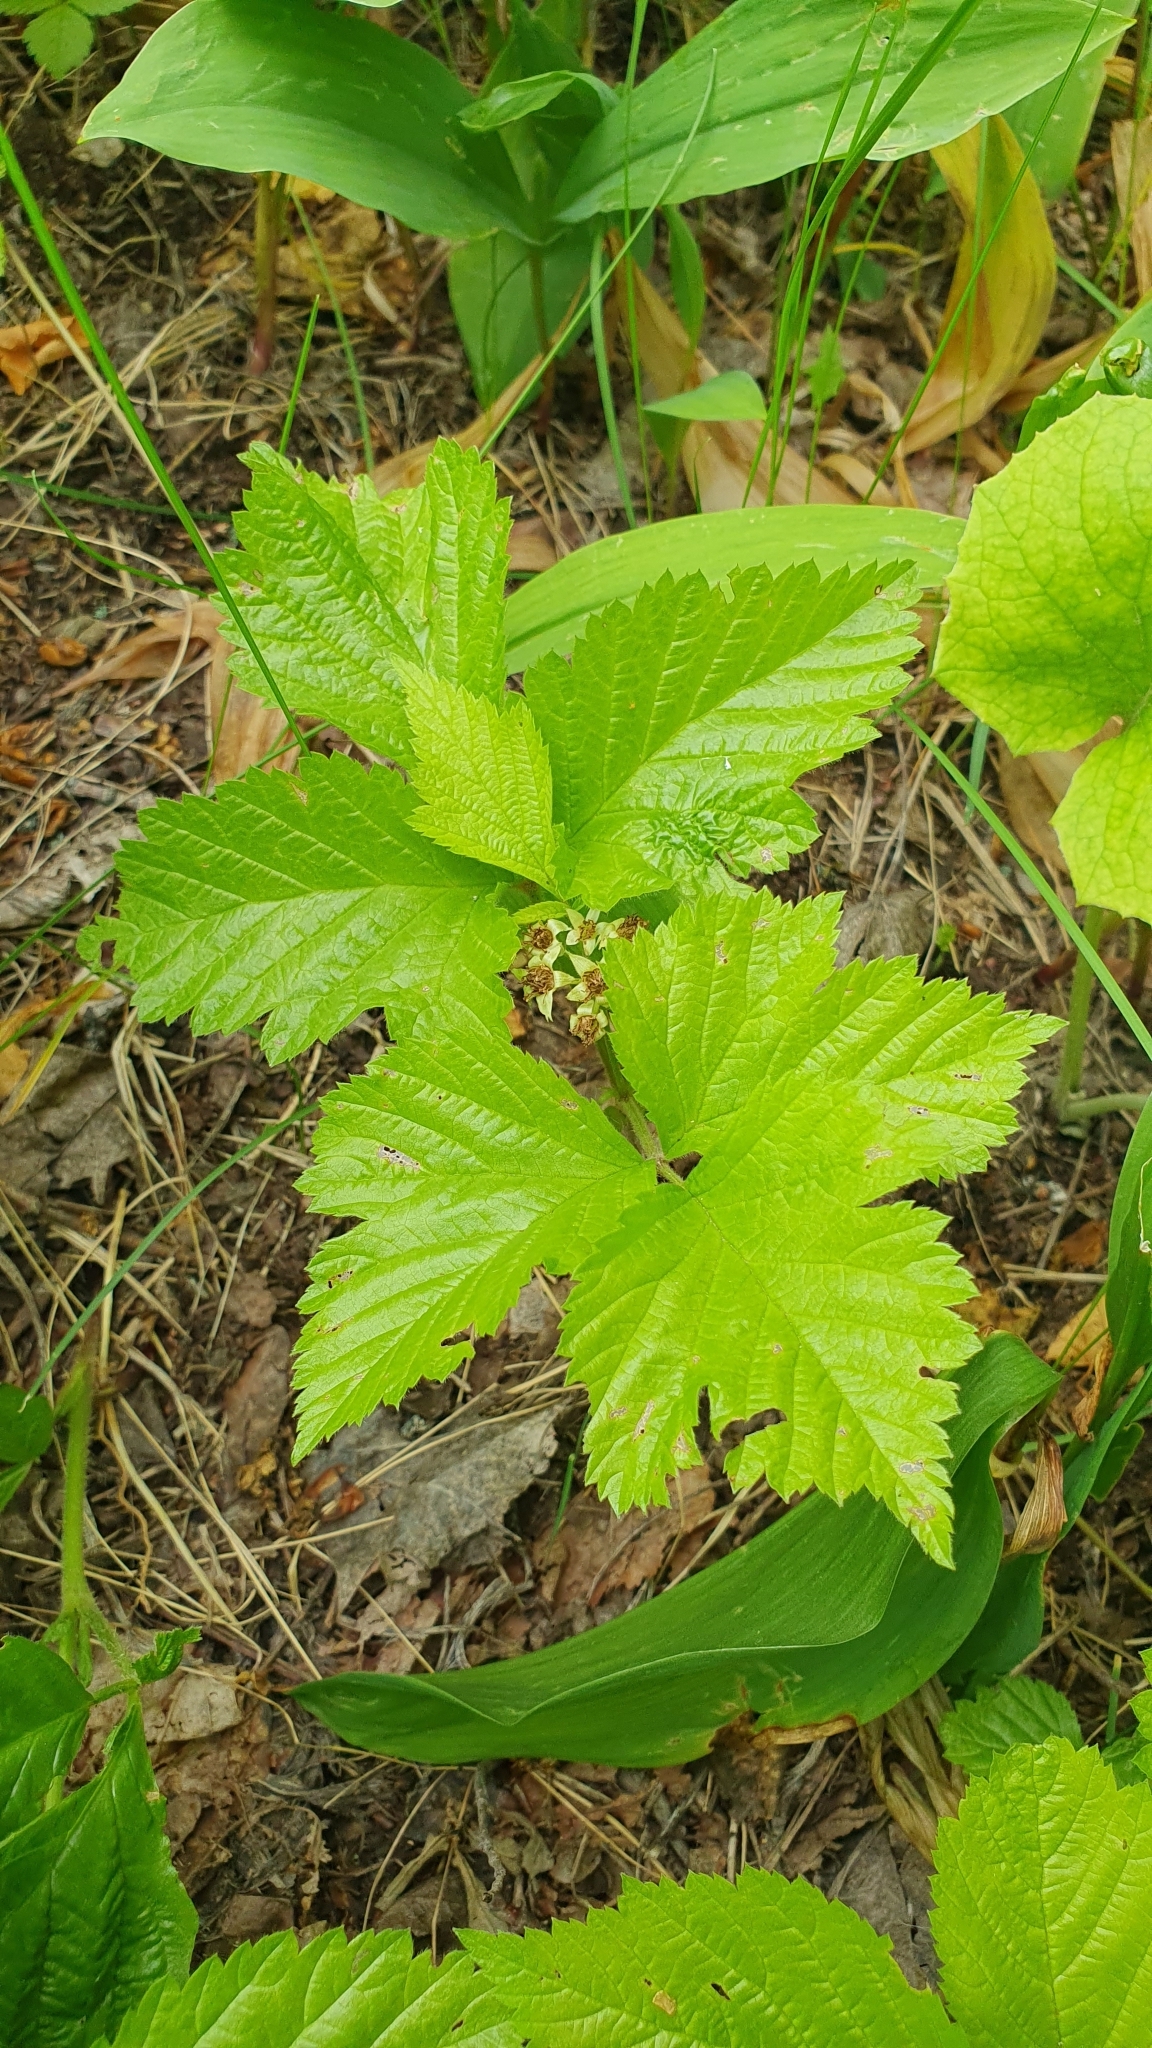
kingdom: Plantae
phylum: Tracheophyta
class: Magnoliopsida
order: Rosales
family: Rosaceae
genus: Rubus
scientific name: Rubus saxatilis
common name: Stone bramble
